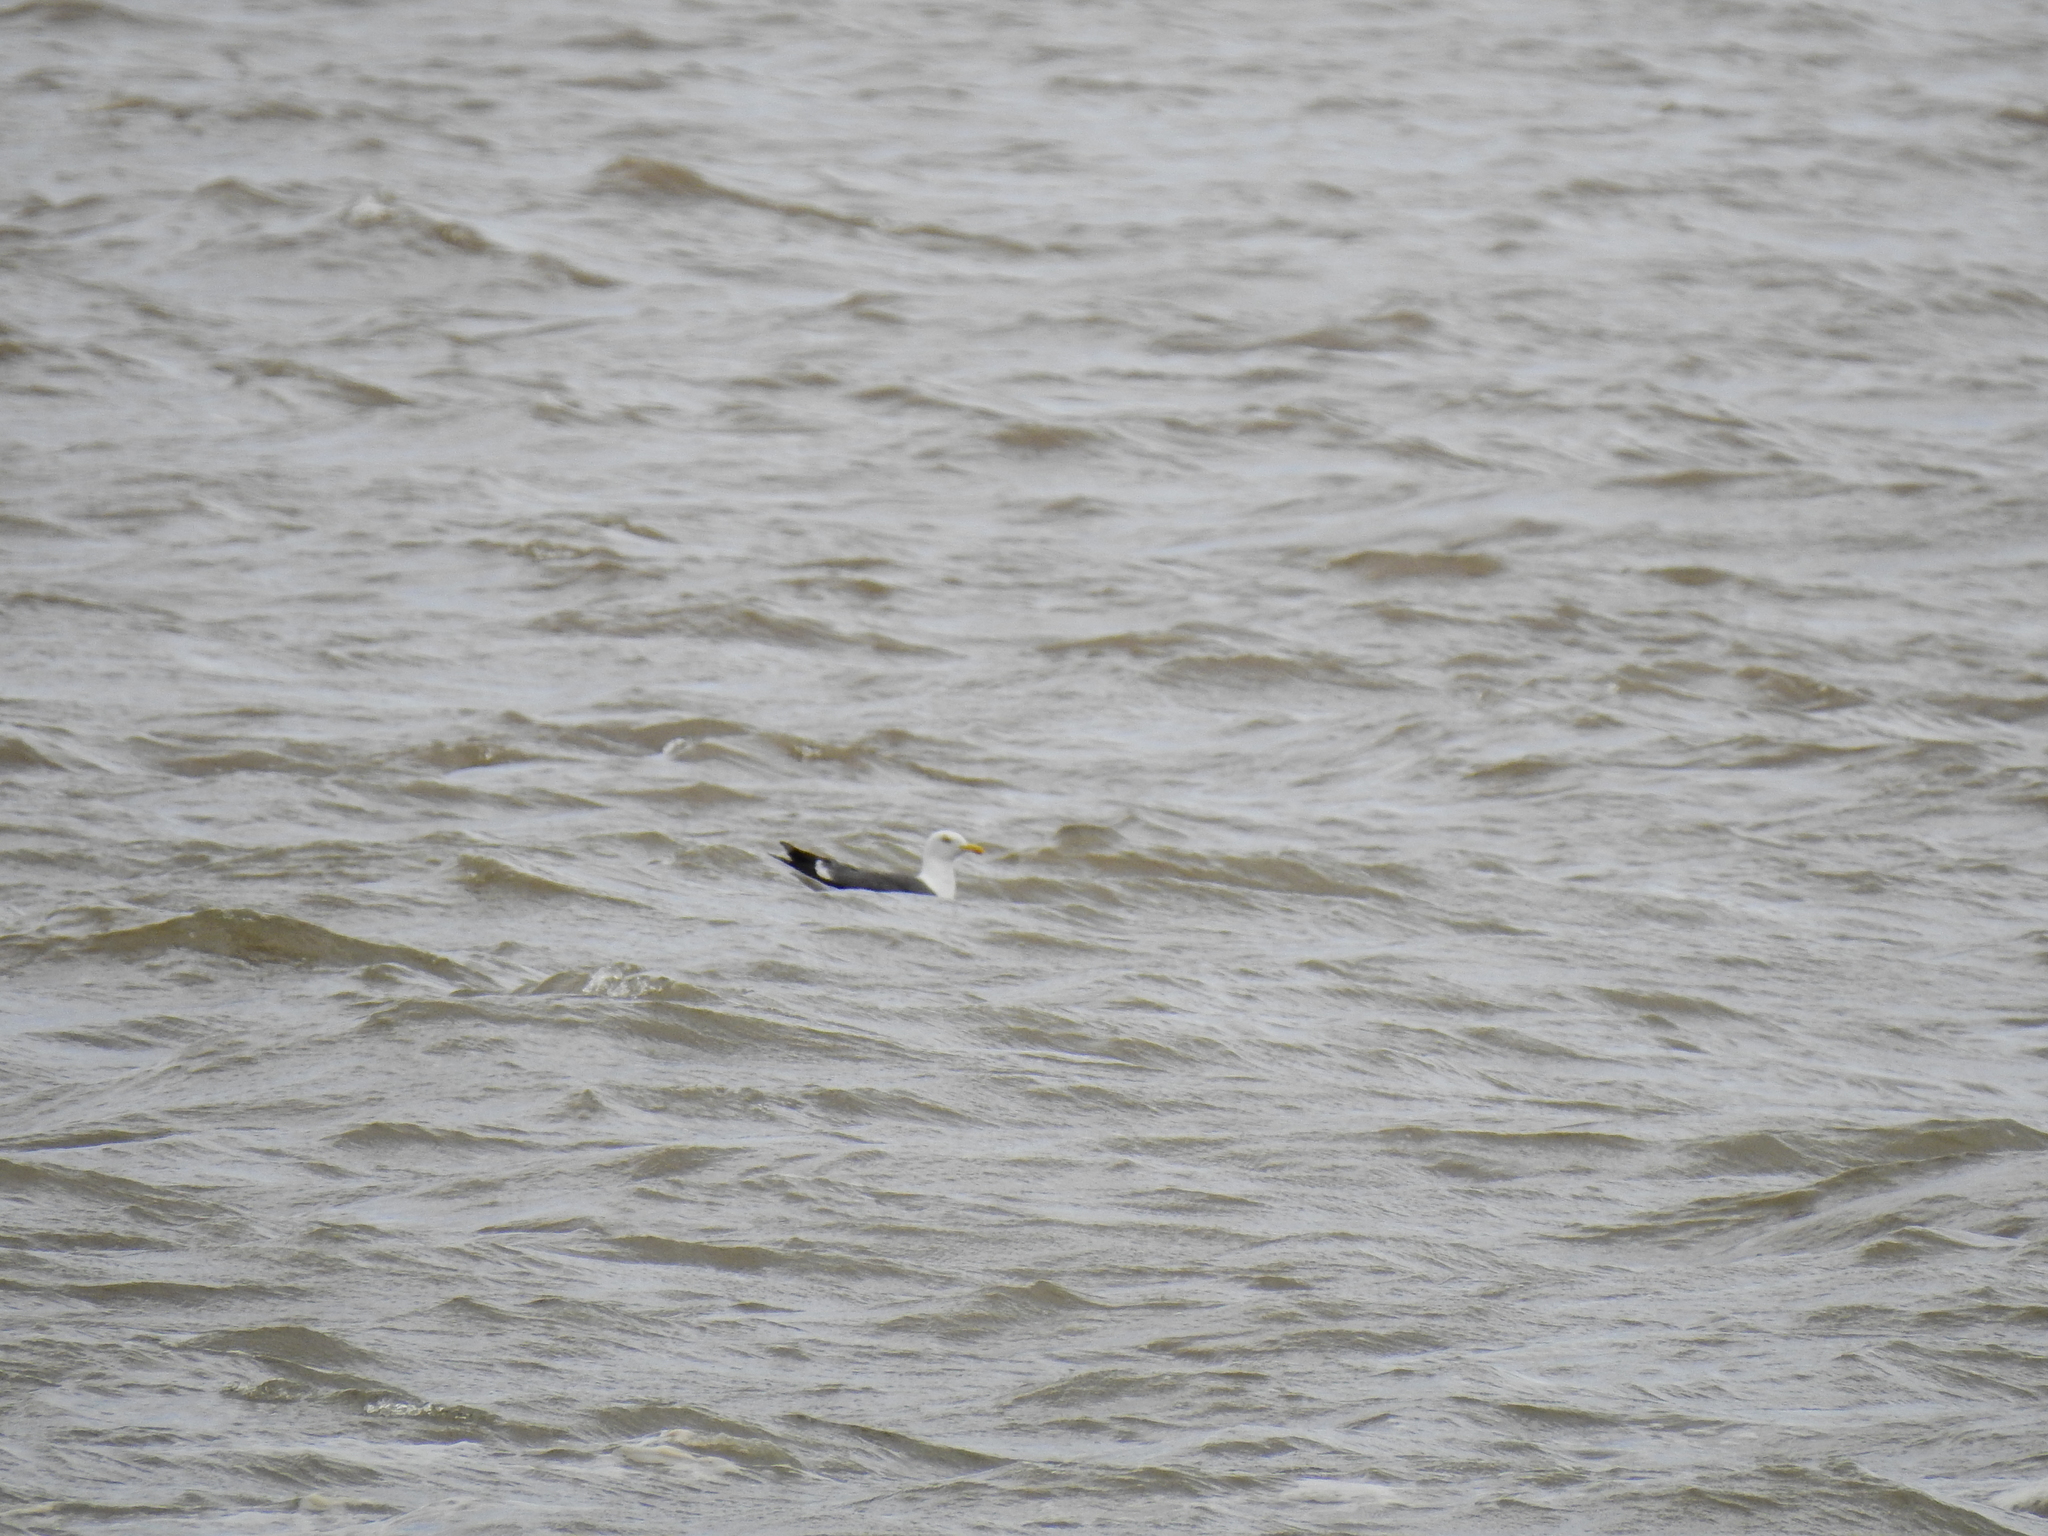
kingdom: Animalia
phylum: Chordata
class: Aves
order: Charadriiformes
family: Laridae
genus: Larus
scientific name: Larus fuscus
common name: Lesser black-backed gull
